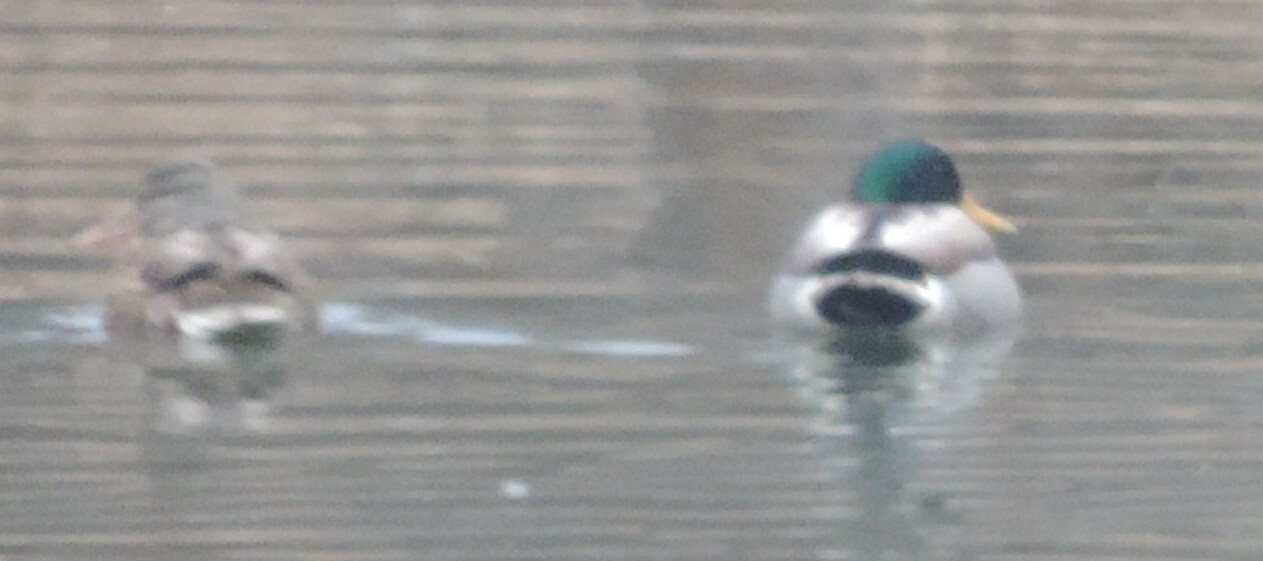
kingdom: Animalia
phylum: Chordata
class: Aves
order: Anseriformes
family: Anatidae
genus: Anas
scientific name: Anas platyrhynchos
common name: Mallard
